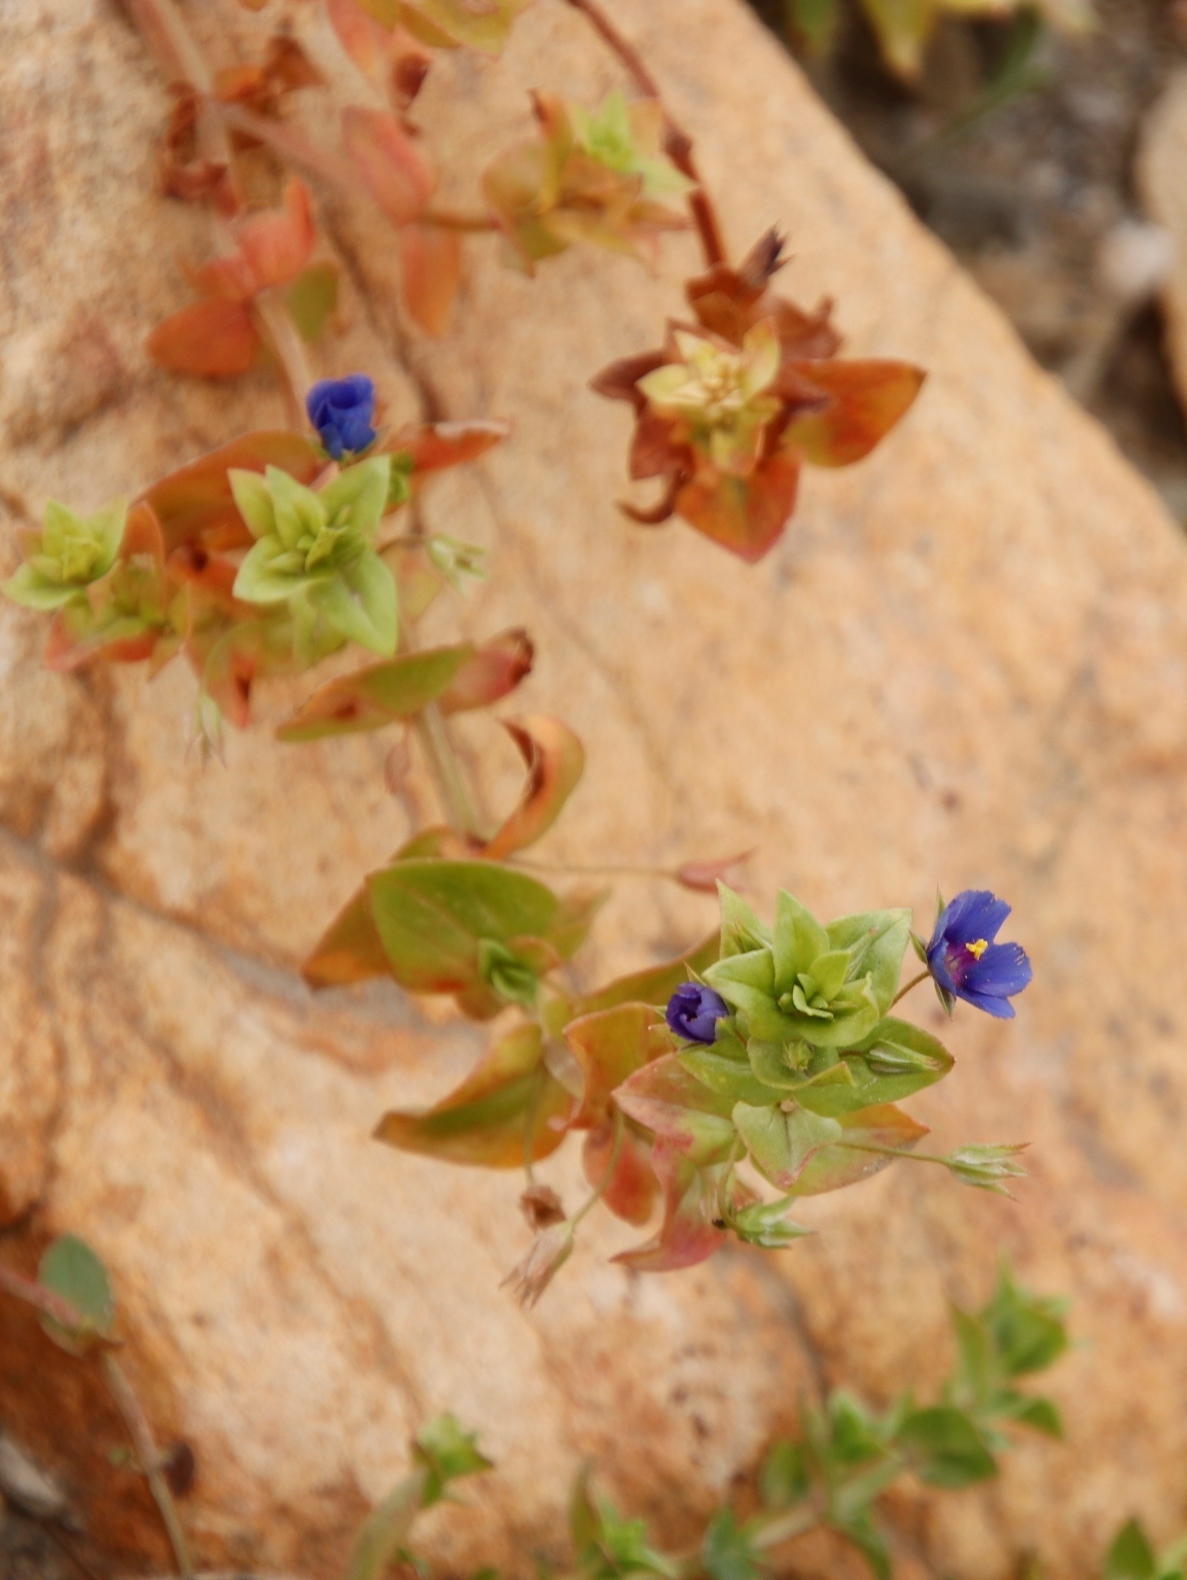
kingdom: Plantae
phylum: Tracheophyta
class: Magnoliopsida
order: Ericales
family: Primulaceae
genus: Lysimachia
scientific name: Lysimachia loeflingii
